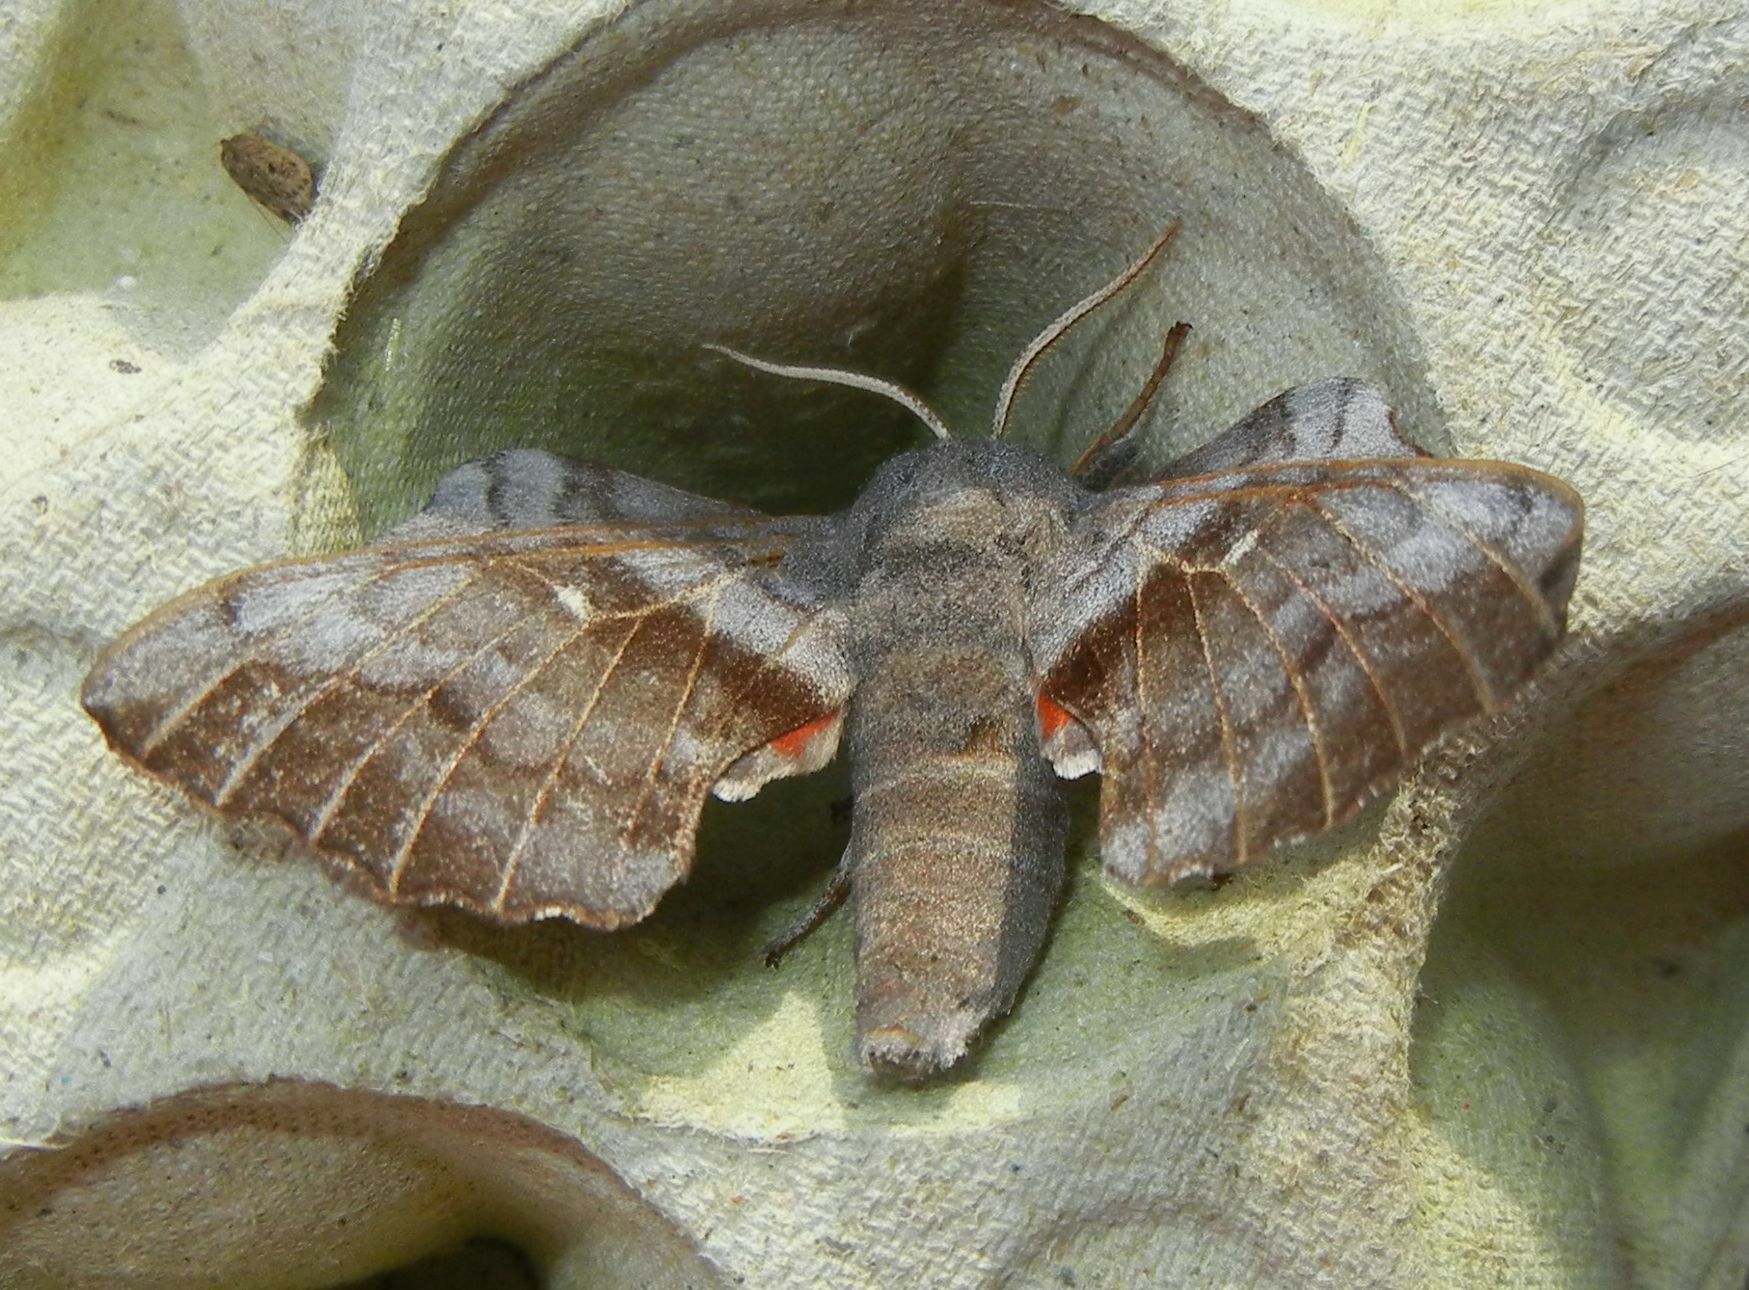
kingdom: Animalia
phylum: Arthropoda
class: Insecta
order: Lepidoptera
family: Sphingidae
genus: Laothoe
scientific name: Laothoe populi
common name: Poplar hawk-moth
